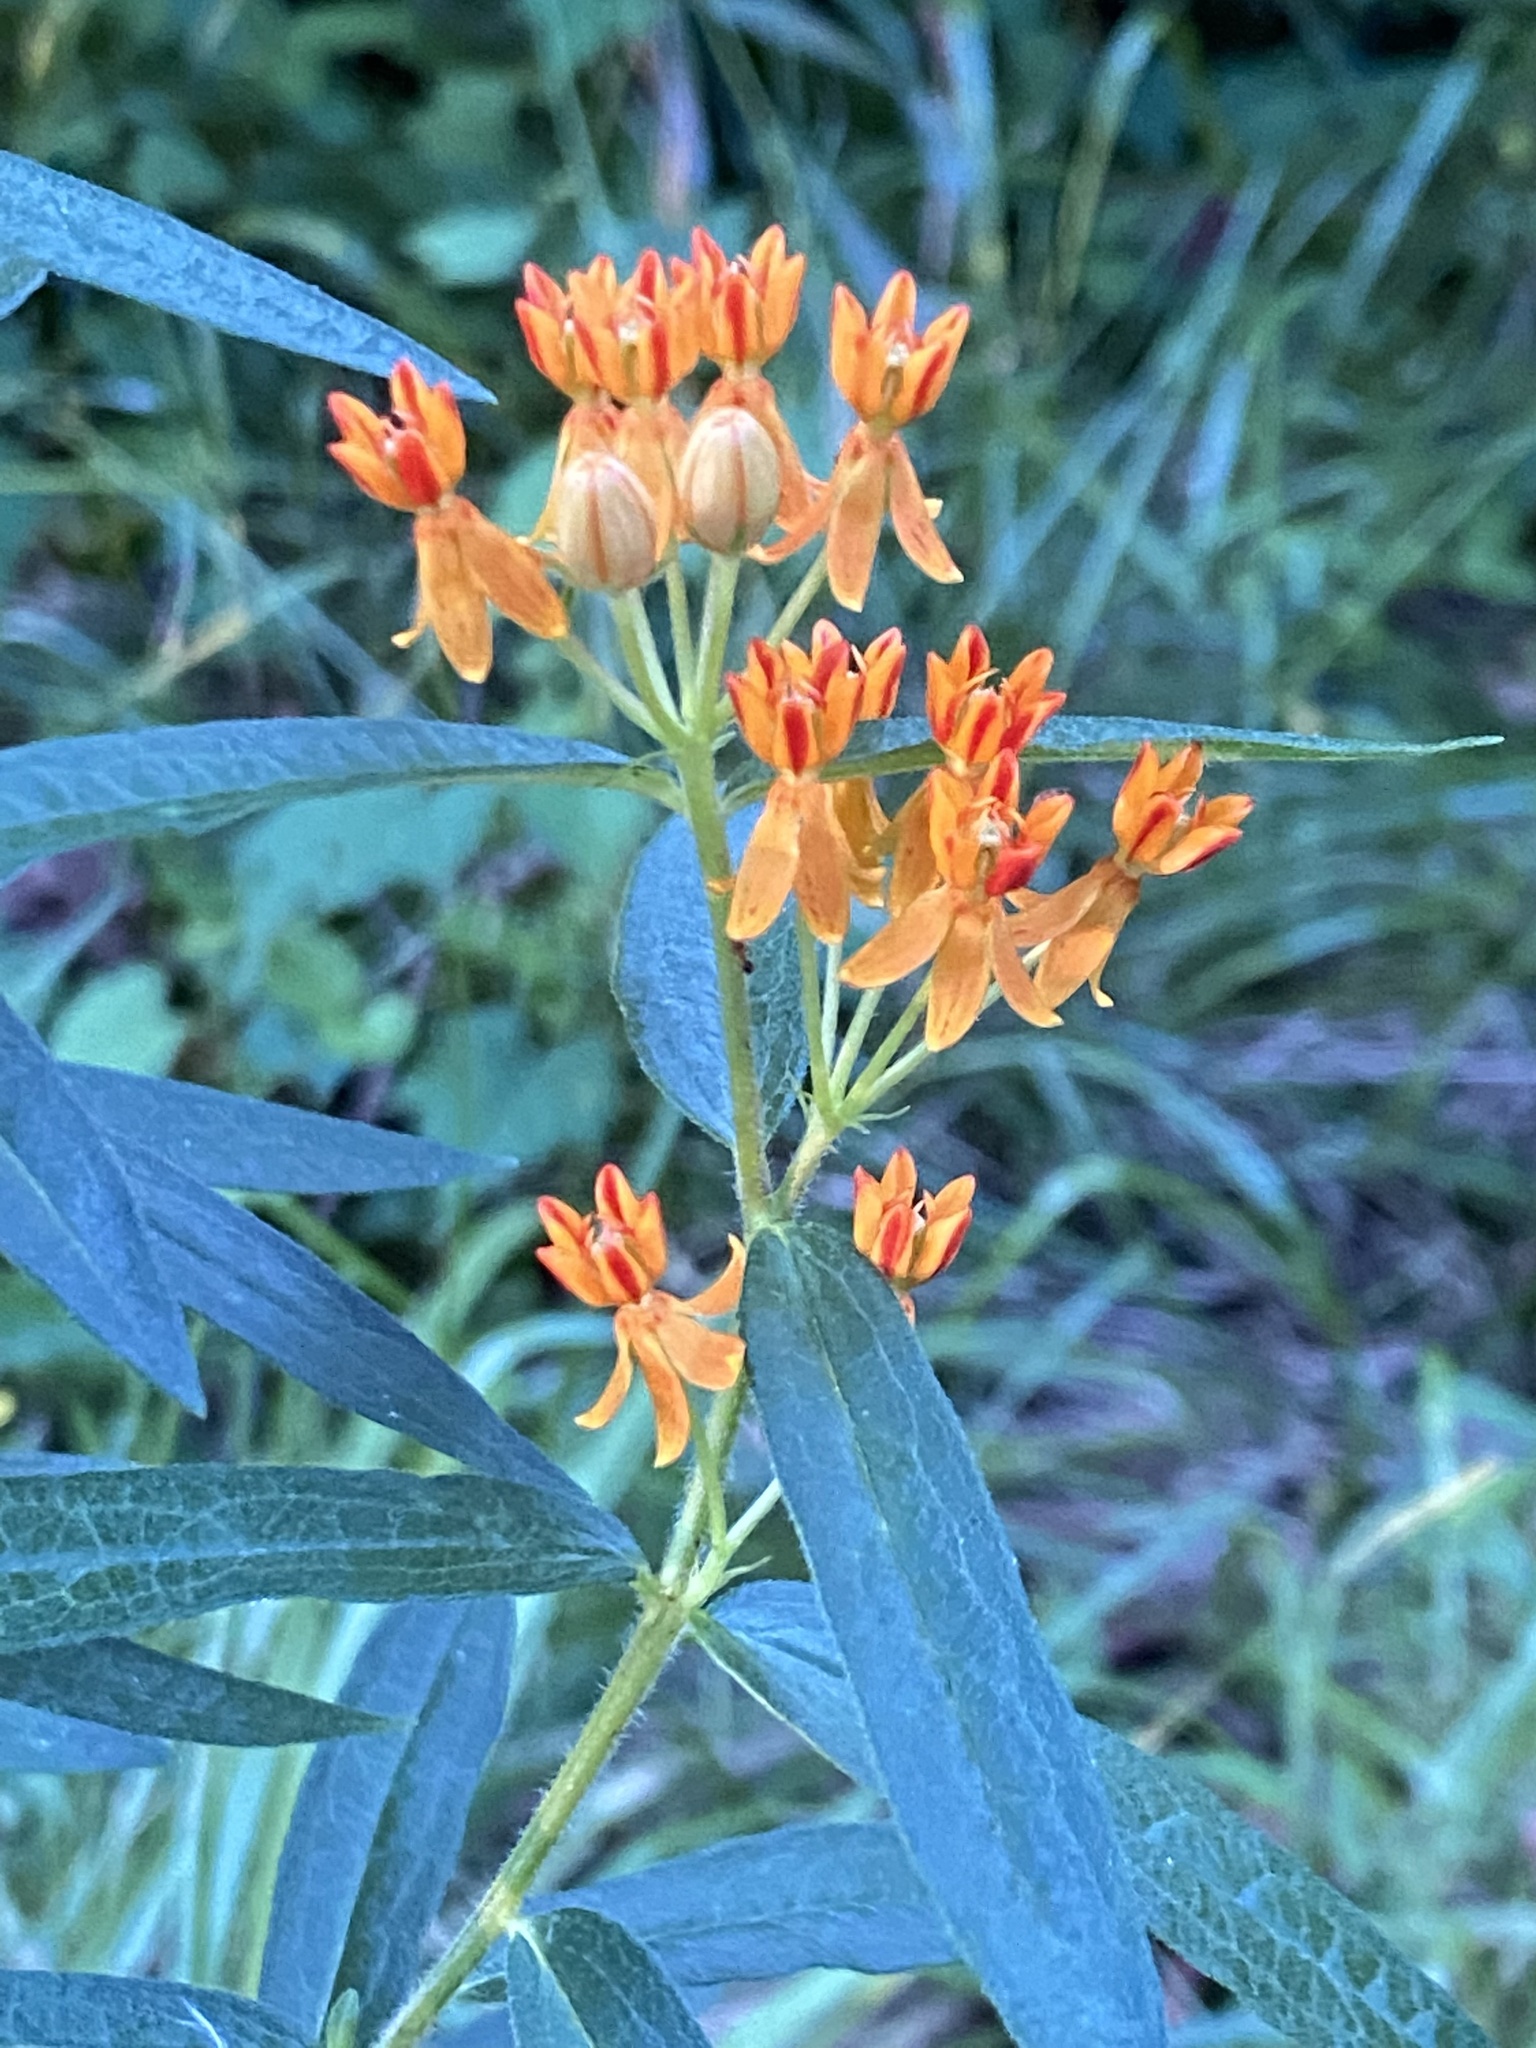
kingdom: Plantae
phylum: Tracheophyta
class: Magnoliopsida
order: Gentianales
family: Apocynaceae
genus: Asclepias
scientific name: Asclepias tuberosa
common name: Butterfly milkweed
